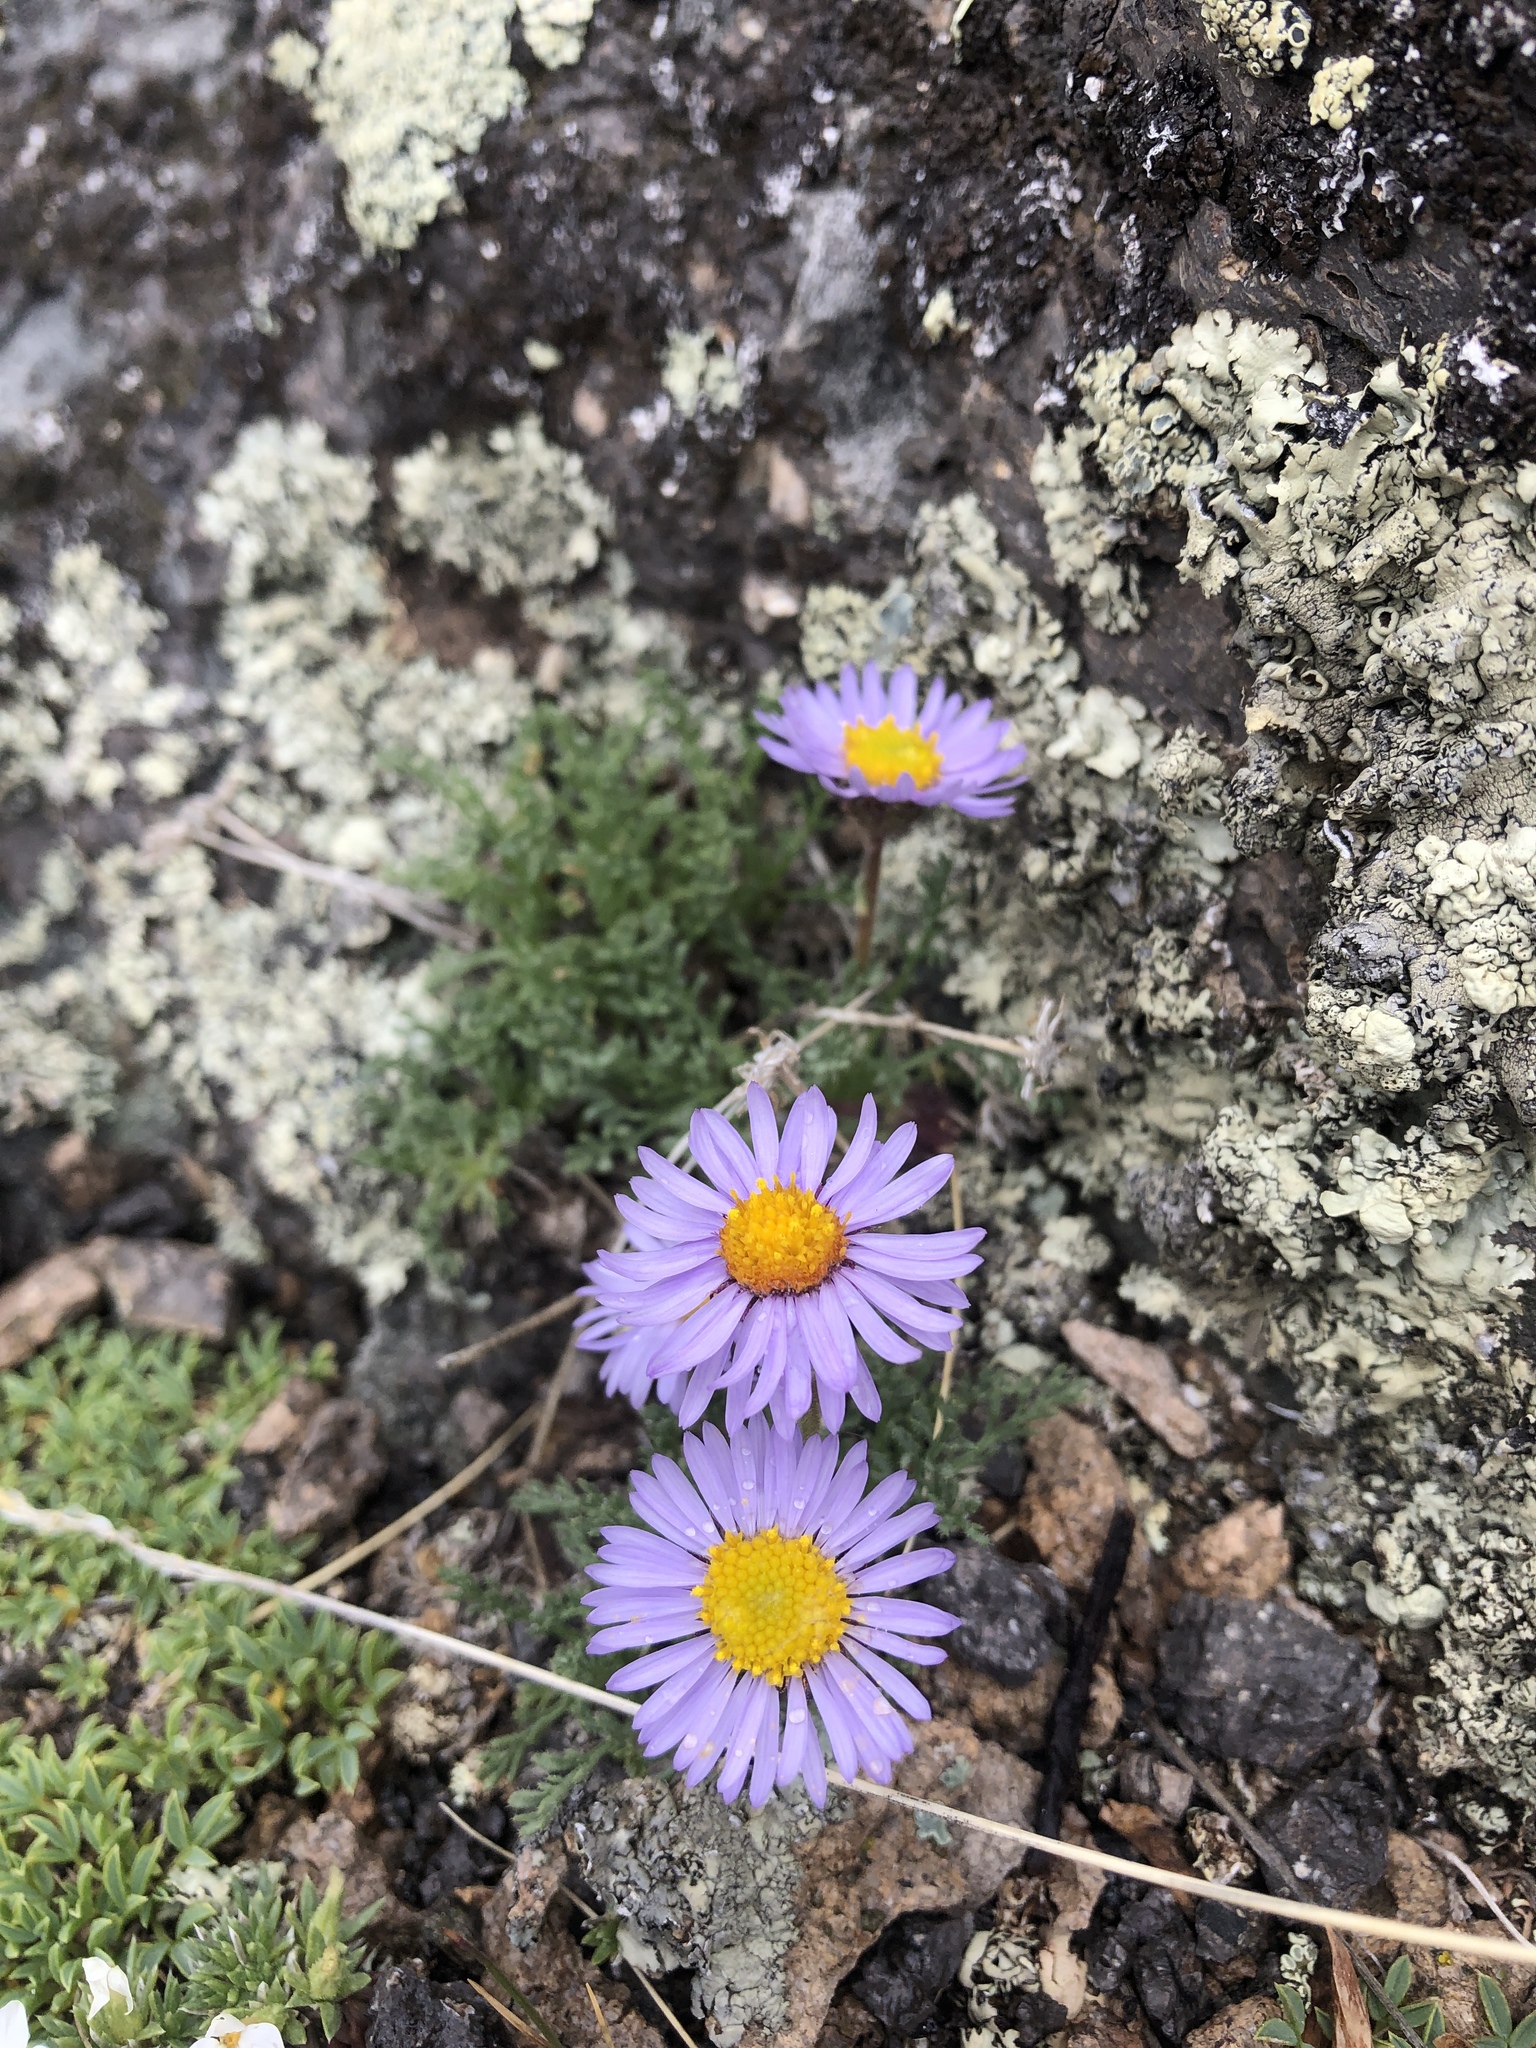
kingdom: Plantae
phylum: Tracheophyta
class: Magnoliopsida
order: Asterales
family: Asteraceae
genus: Erigeron
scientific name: Erigeron pinnatisectus
